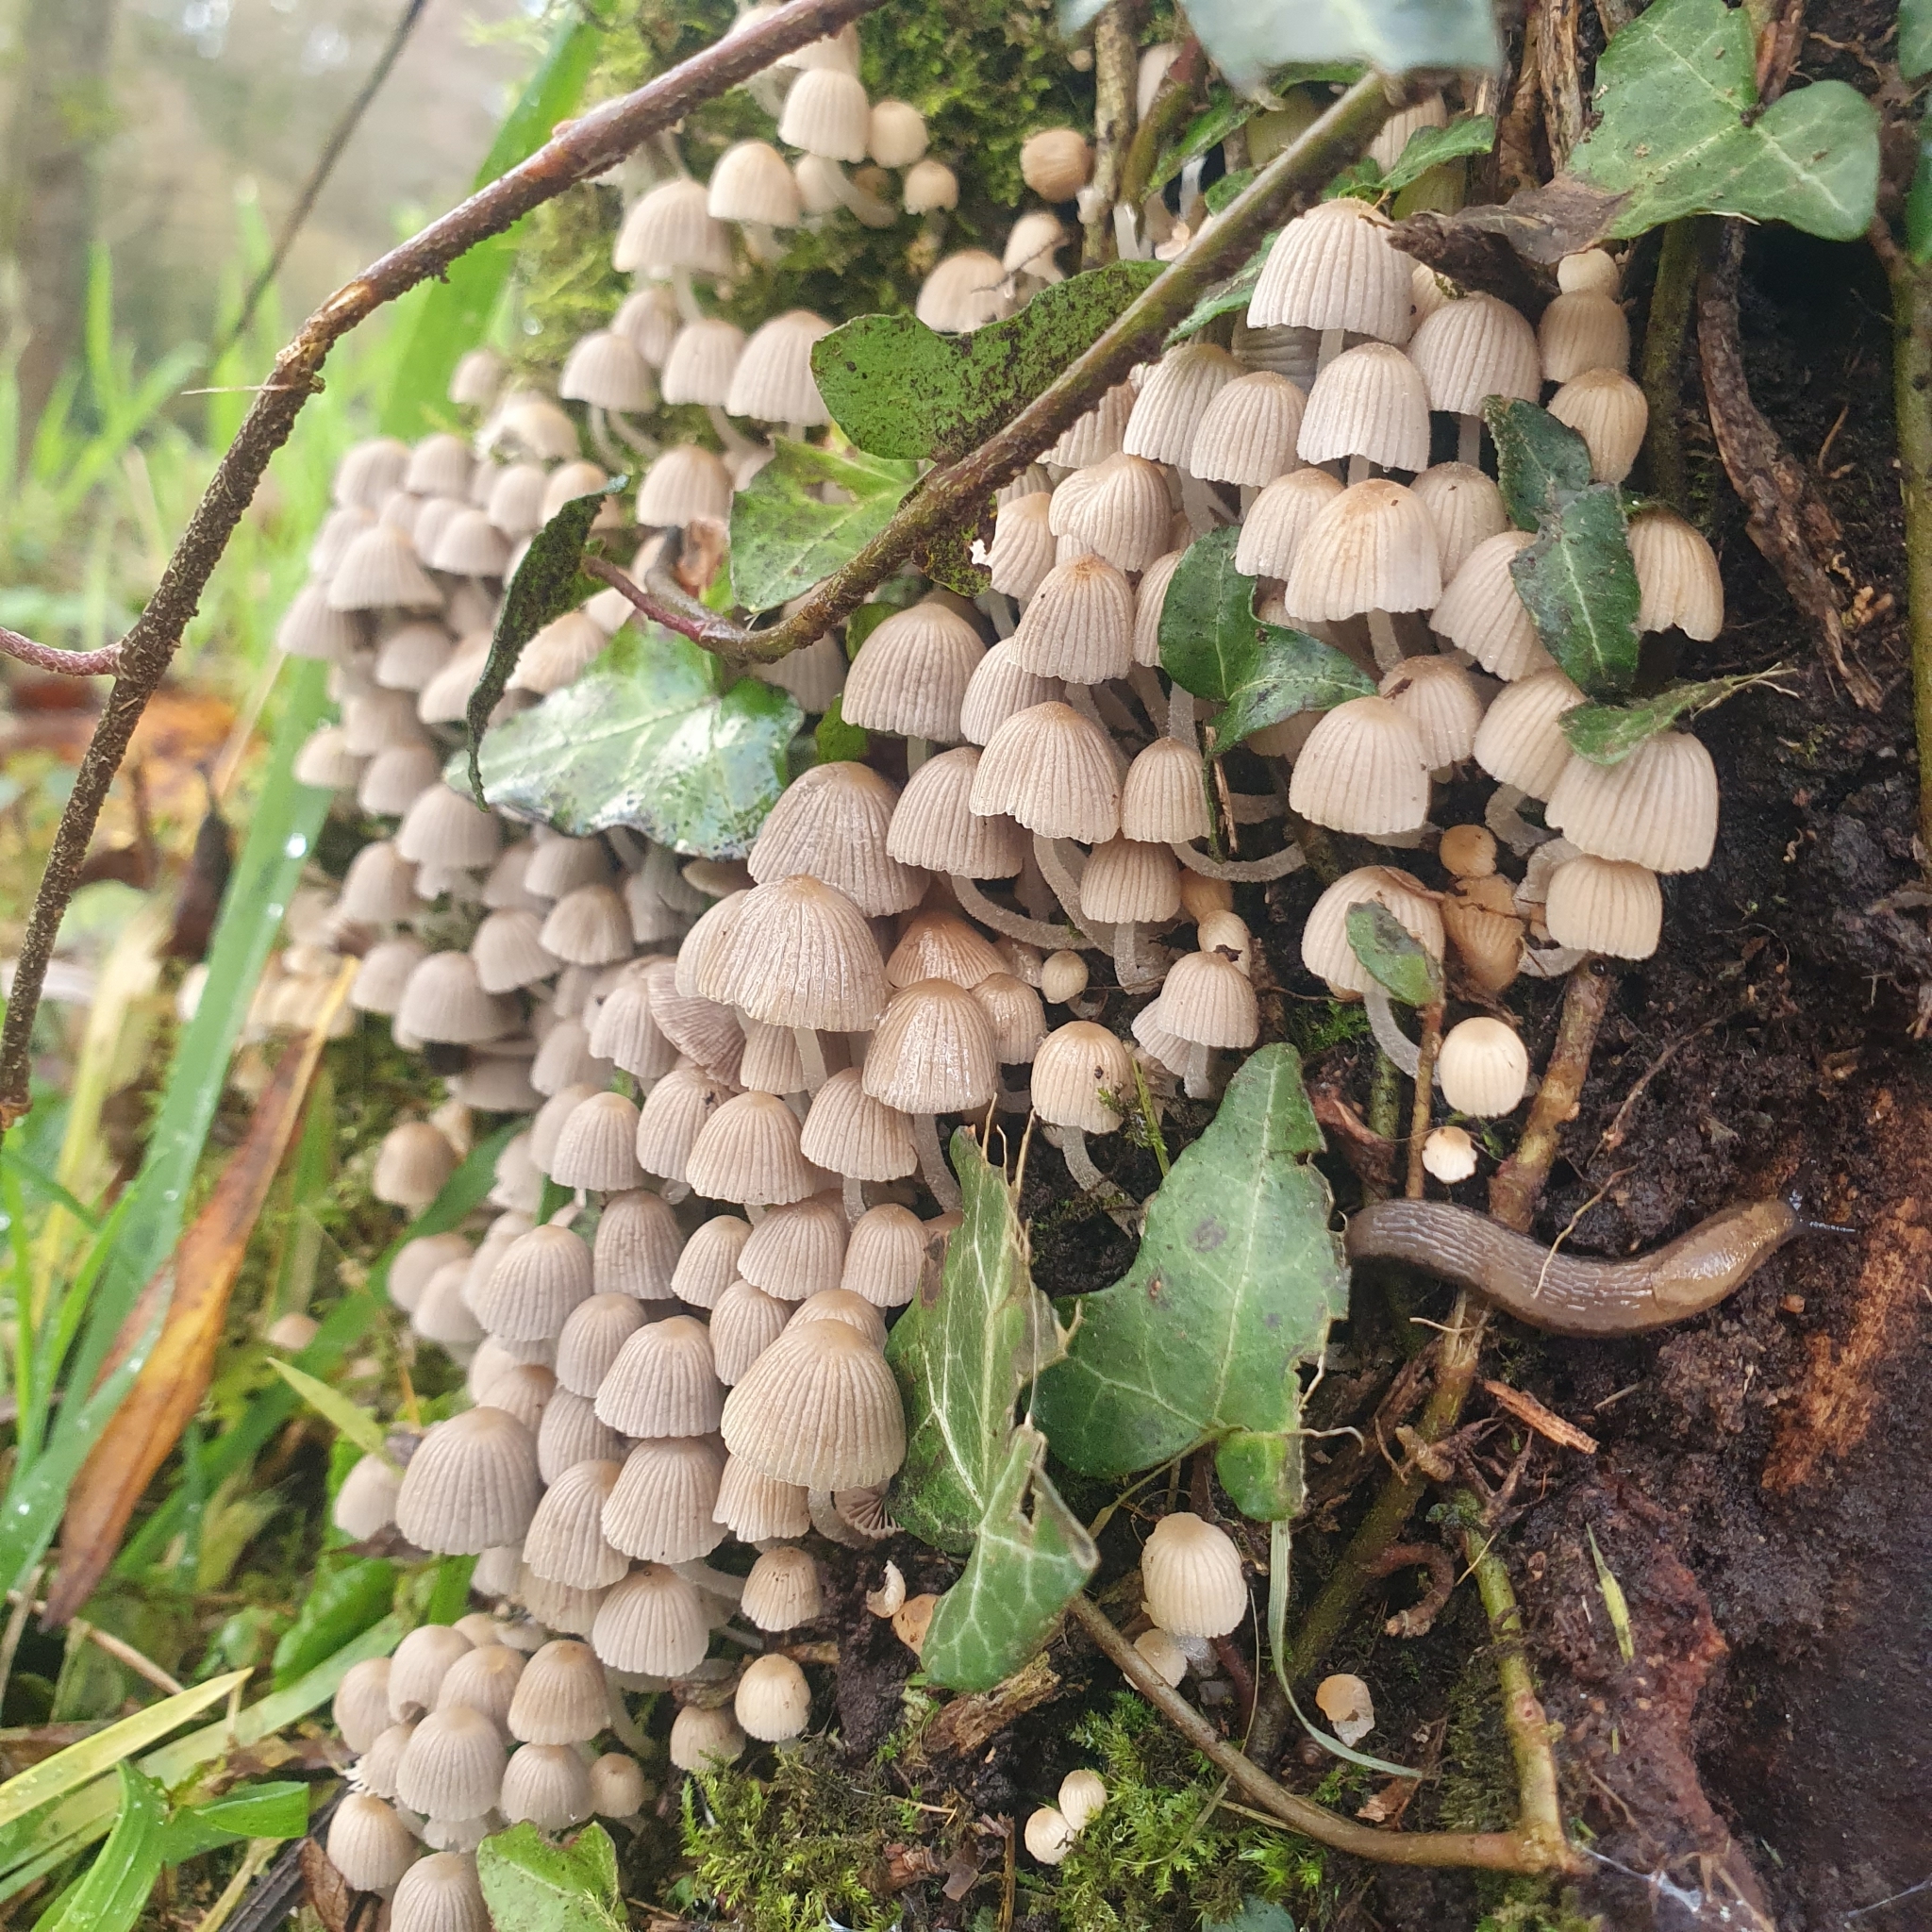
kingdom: Fungi
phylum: Basidiomycota
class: Agaricomycetes
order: Agaricales
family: Psathyrellaceae
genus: Coprinellus
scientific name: Coprinellus disseminatus
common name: Fairies' bonnets
